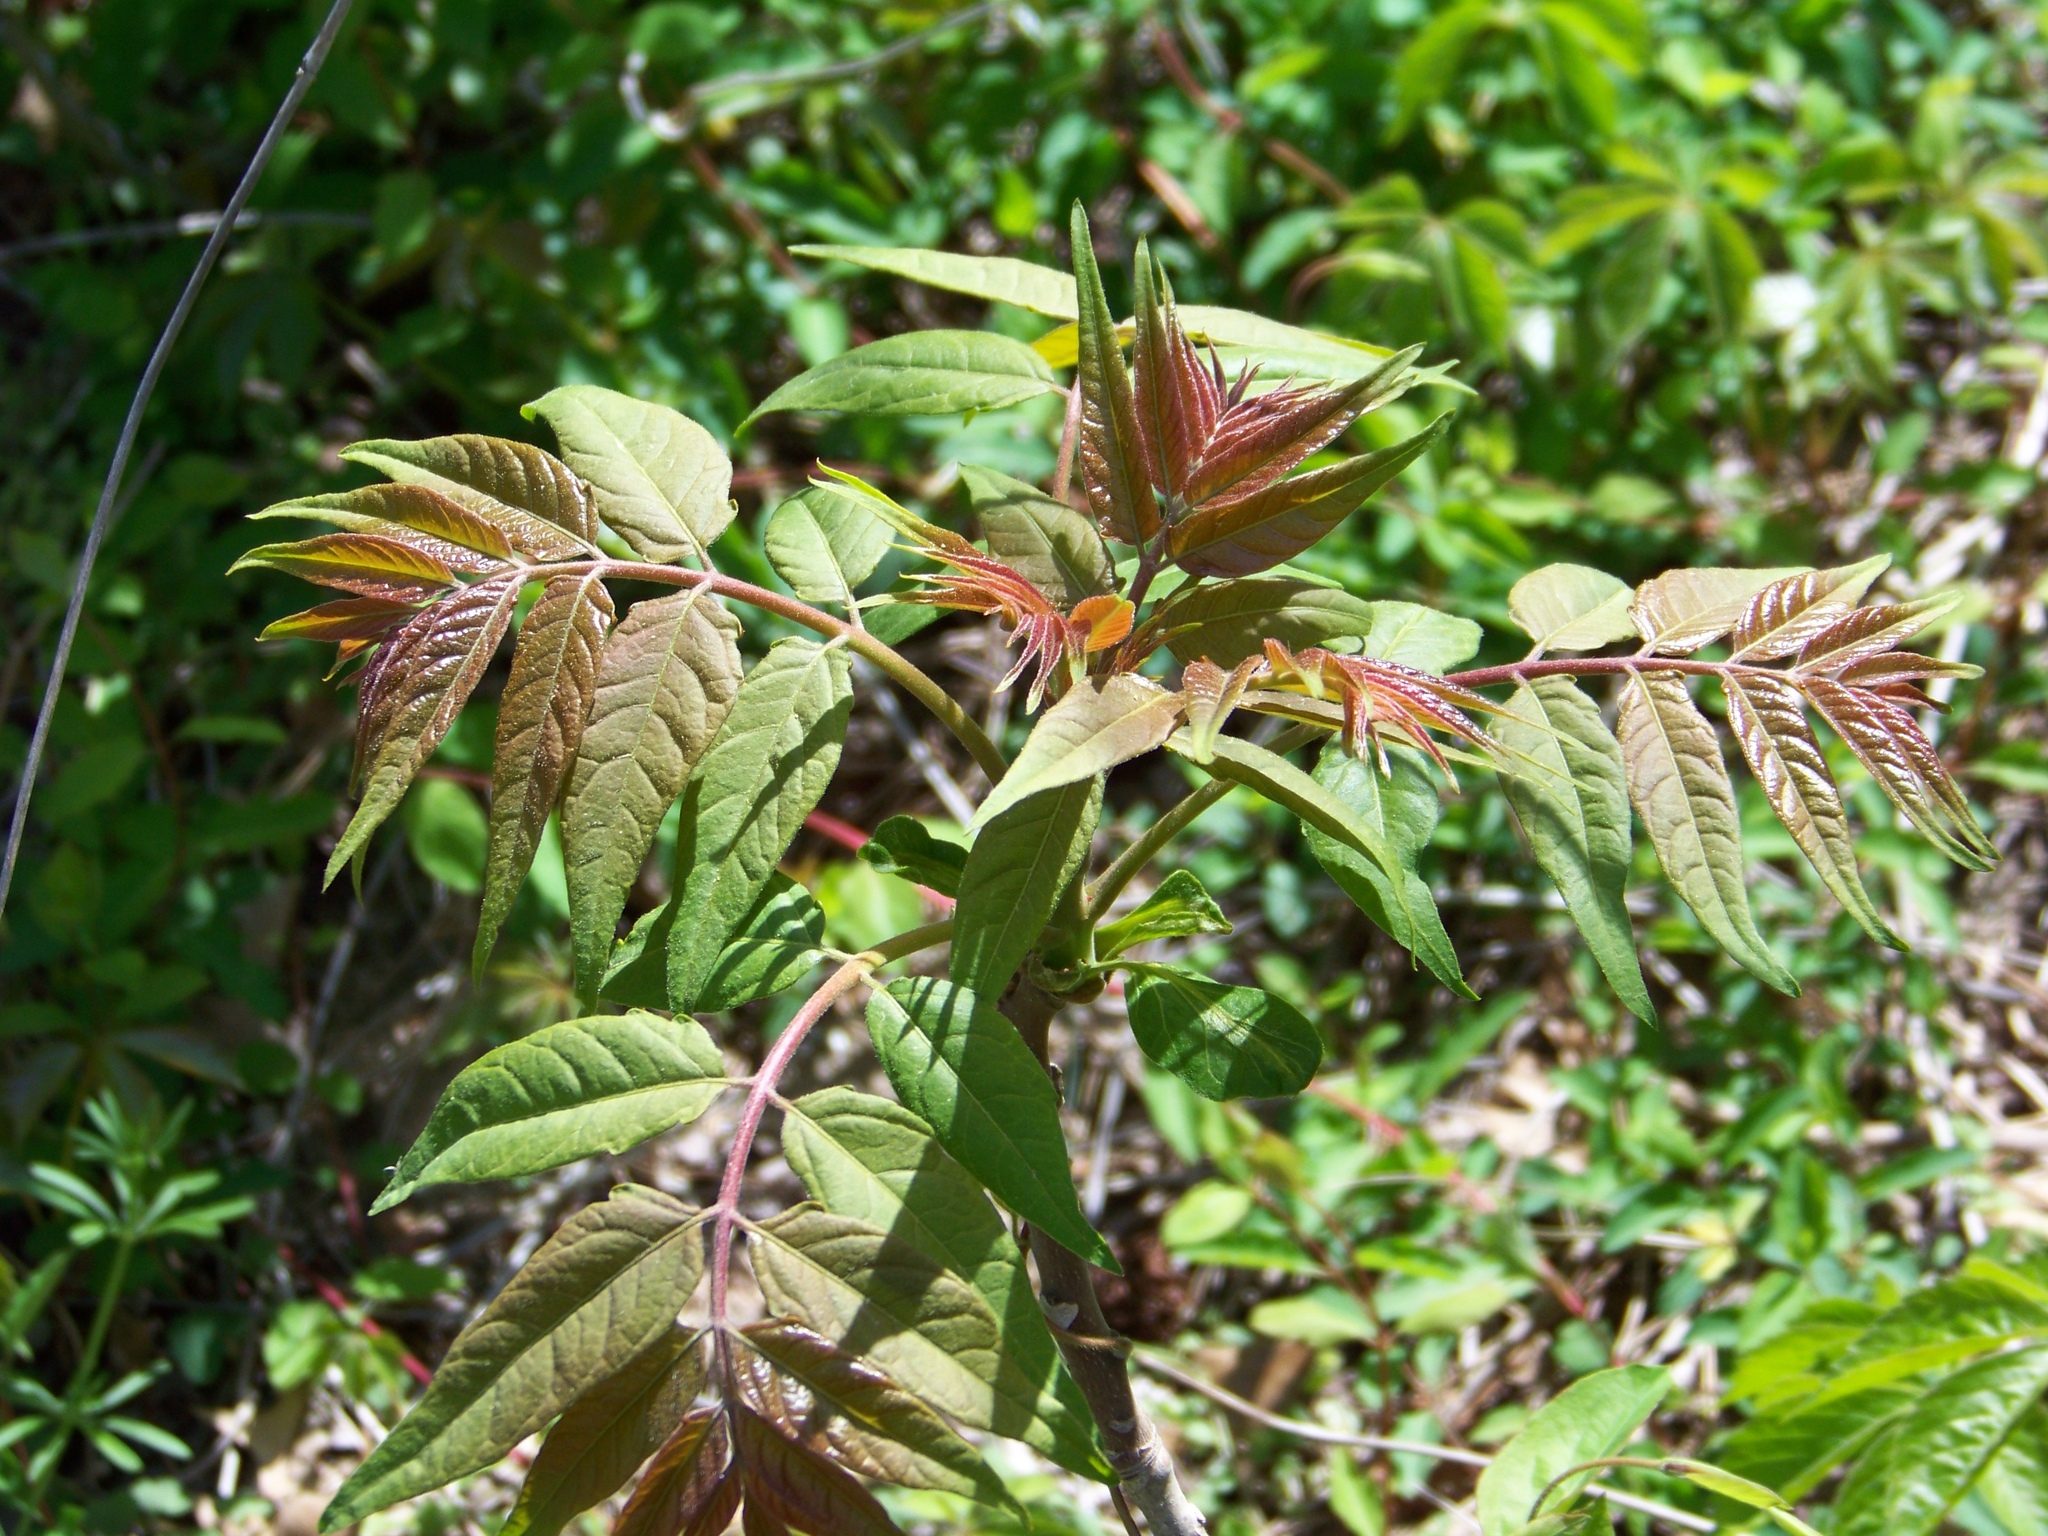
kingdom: Plantae
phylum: Tracheophyta
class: Magnoliopsida
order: Sapindales
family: Simaroubaceae
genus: Ailanthus
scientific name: Ailanthus altissima
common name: Tree-of-heaven
